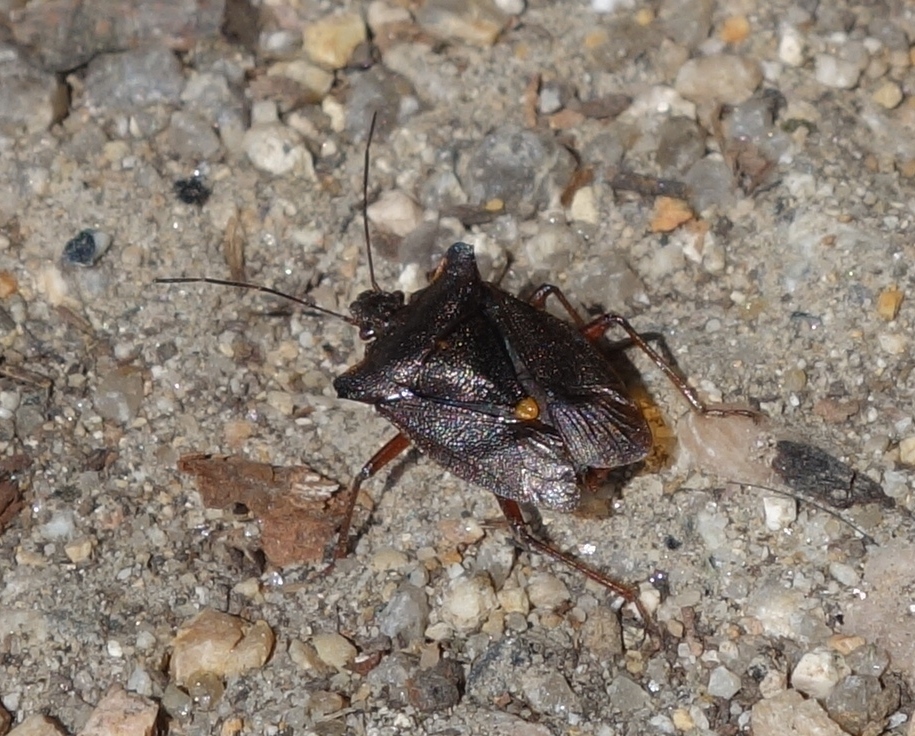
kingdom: Animalia
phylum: Arthropoda
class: Insecta
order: Hemiptera
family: Pentatomidae
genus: Pentatoma
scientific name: Pentatoma rufipes
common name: Forest bug
